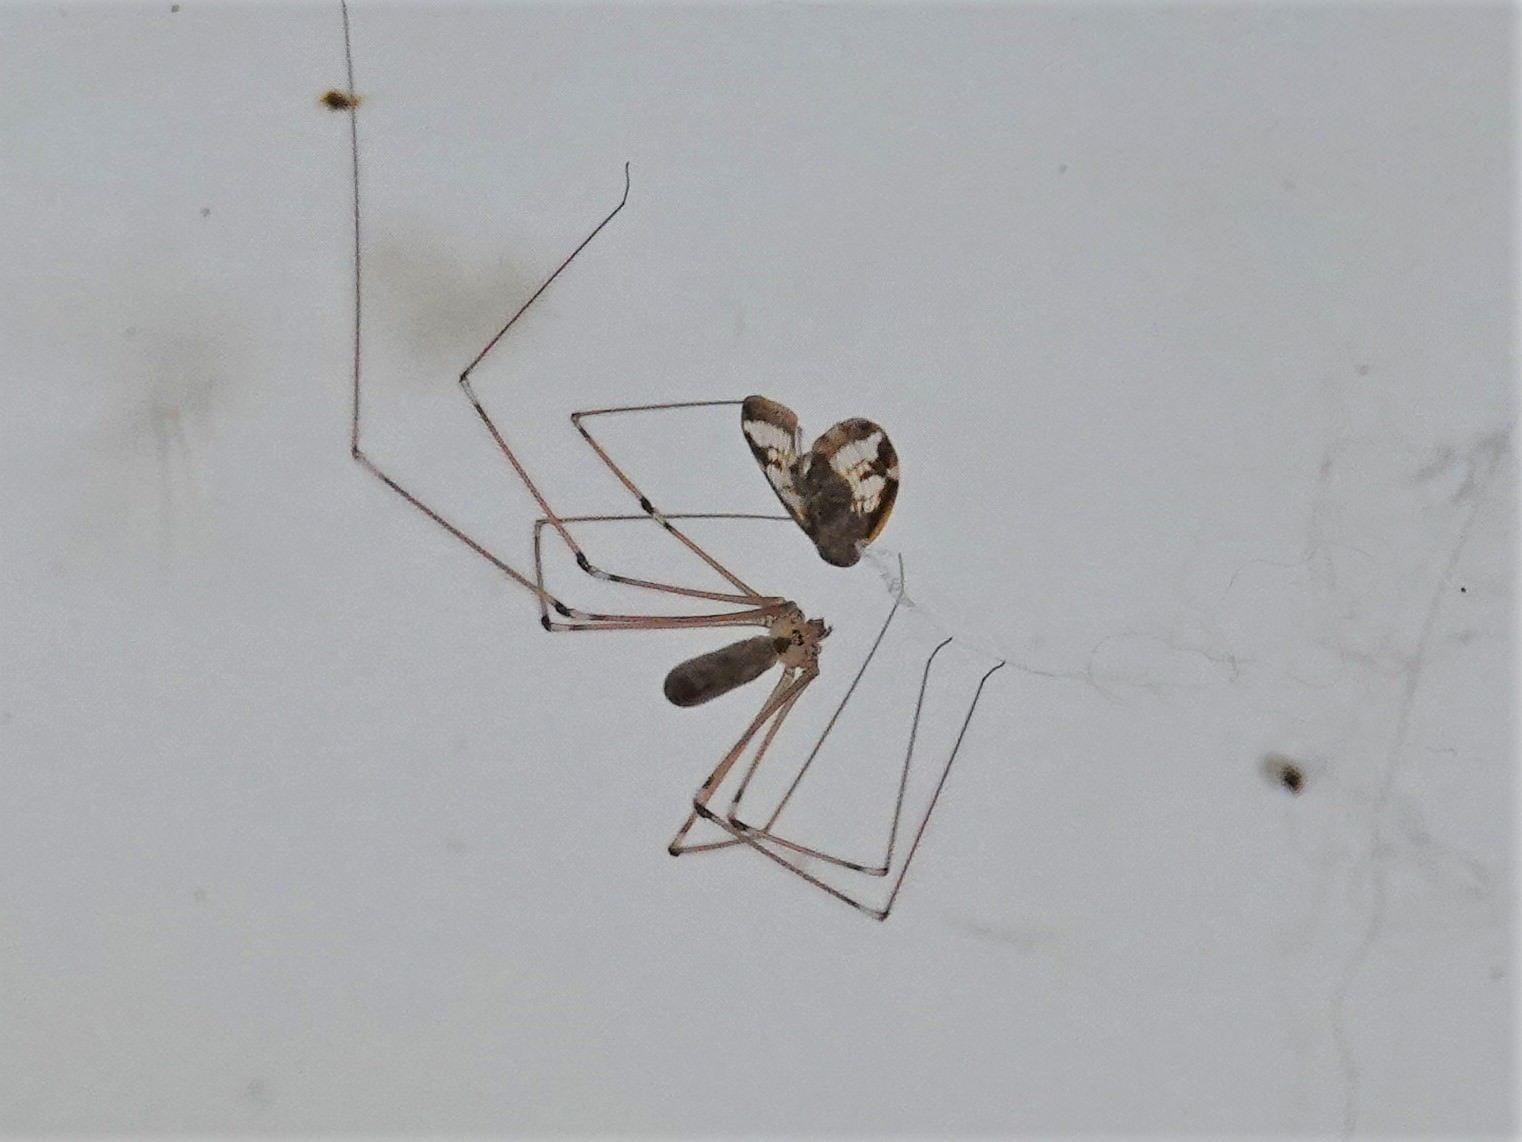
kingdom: Animalia
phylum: Arthropoda
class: Arachnida
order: Araneae
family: Pholcidae
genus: Pholcus
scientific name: Pholcus phalangioides
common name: Longbodied cellar spider
